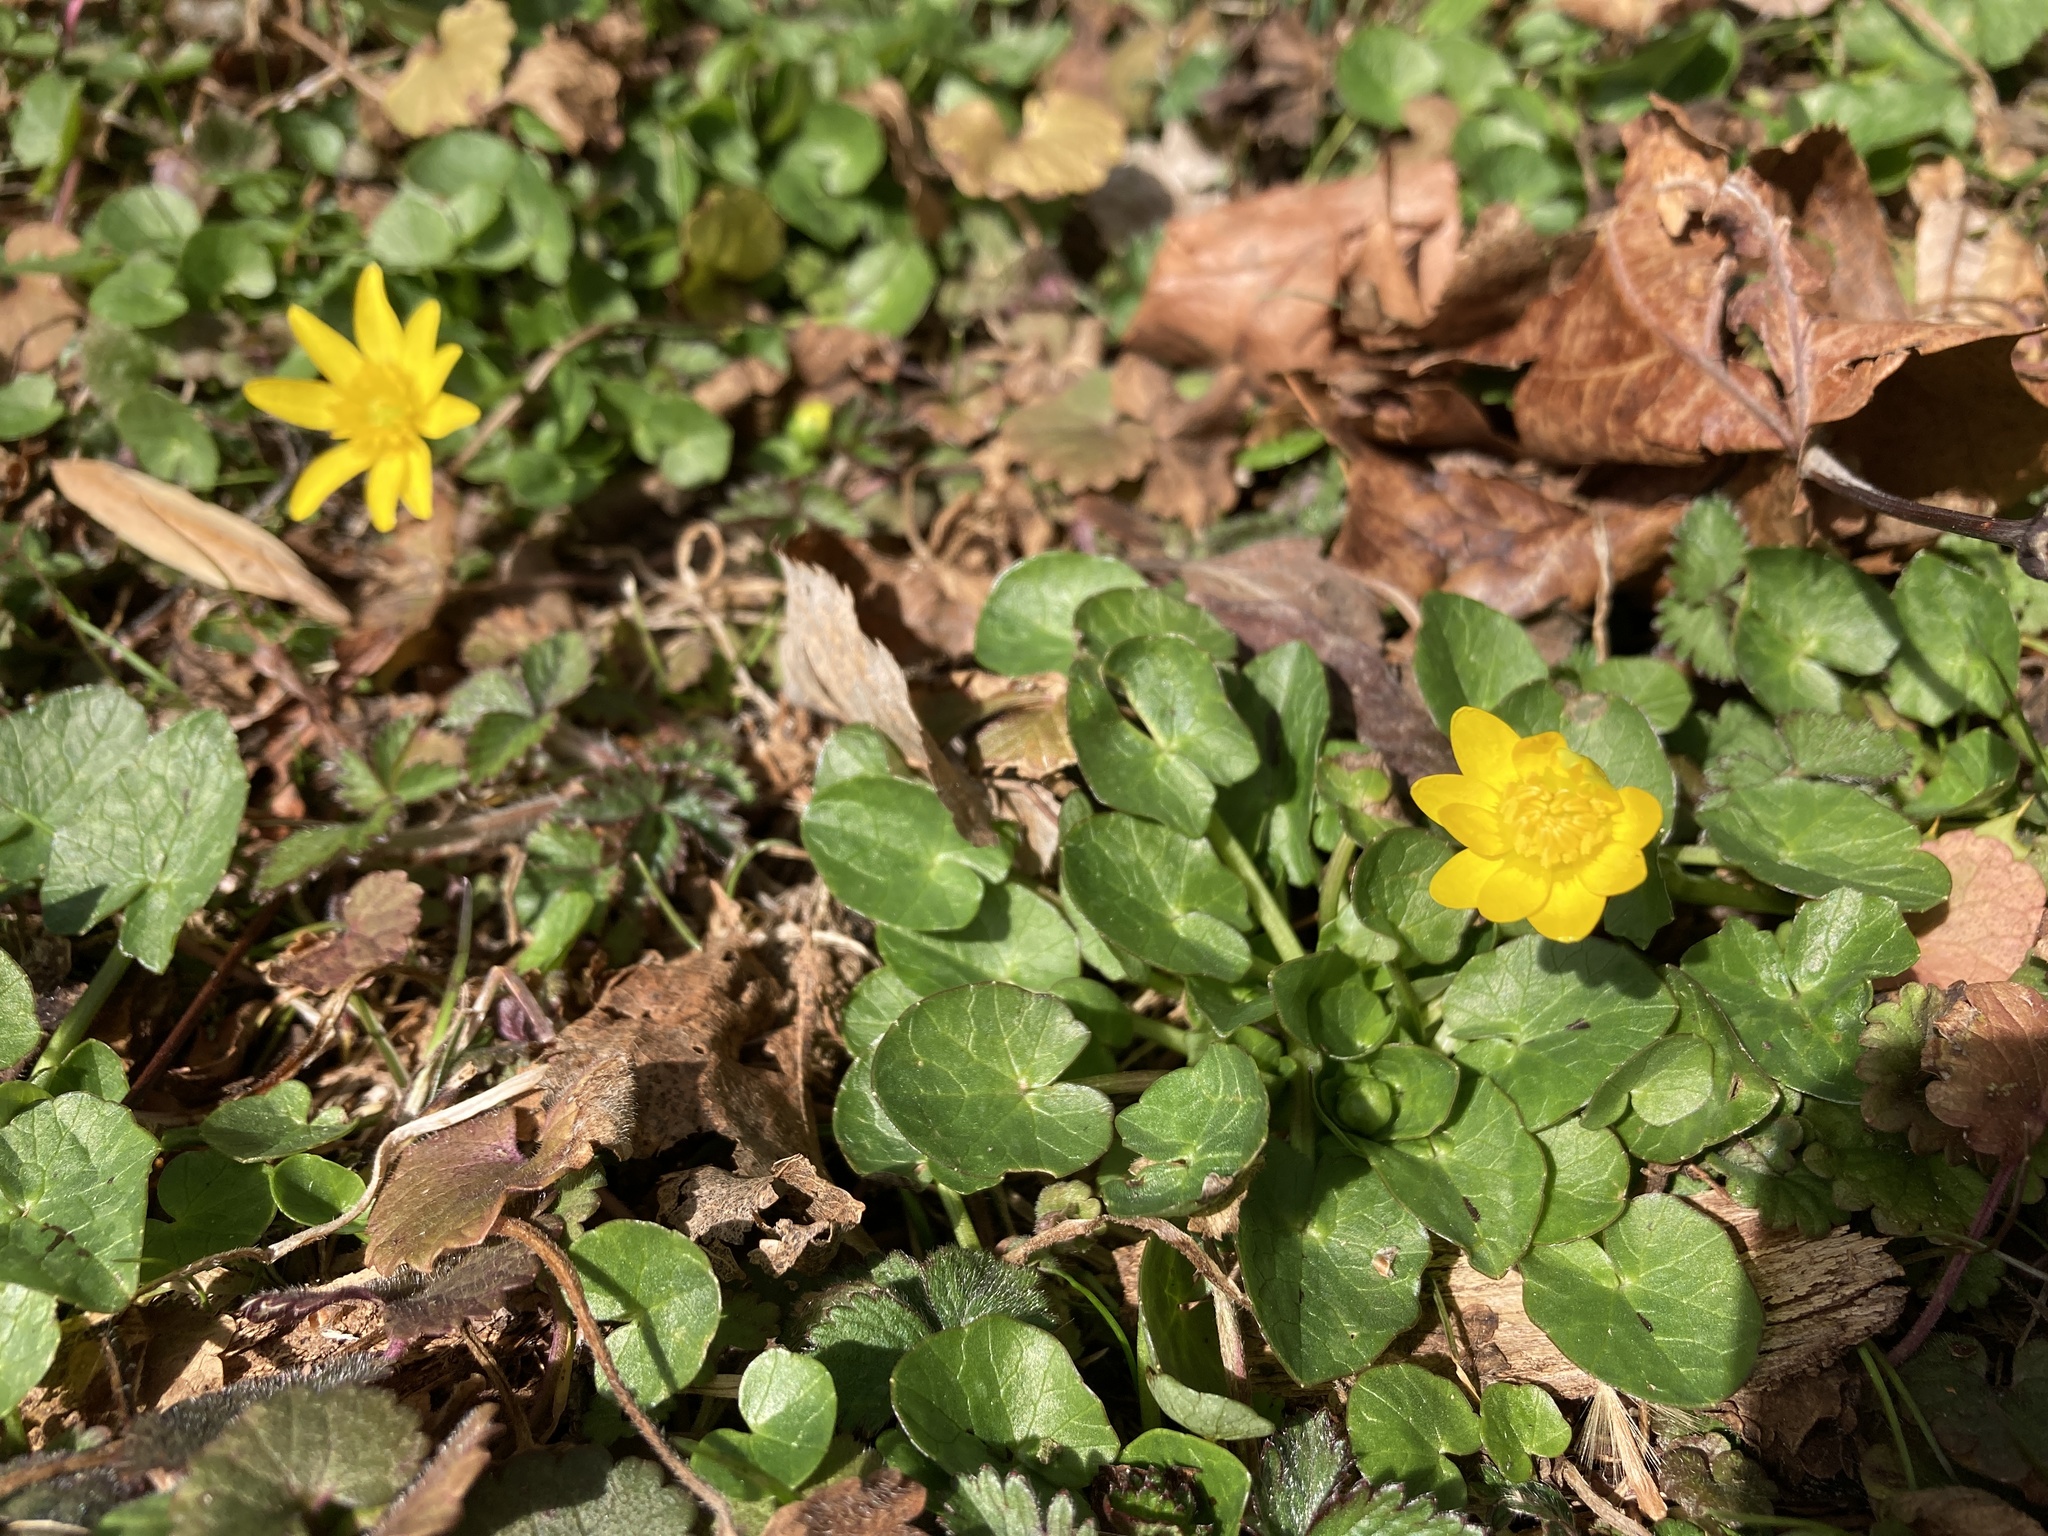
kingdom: Plantae
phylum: Tracheophyta
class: Magnoliopsida
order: Ranunculales
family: Ranunculaceae
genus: Ficaria
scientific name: Ficaria verna
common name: Lesser celandine
